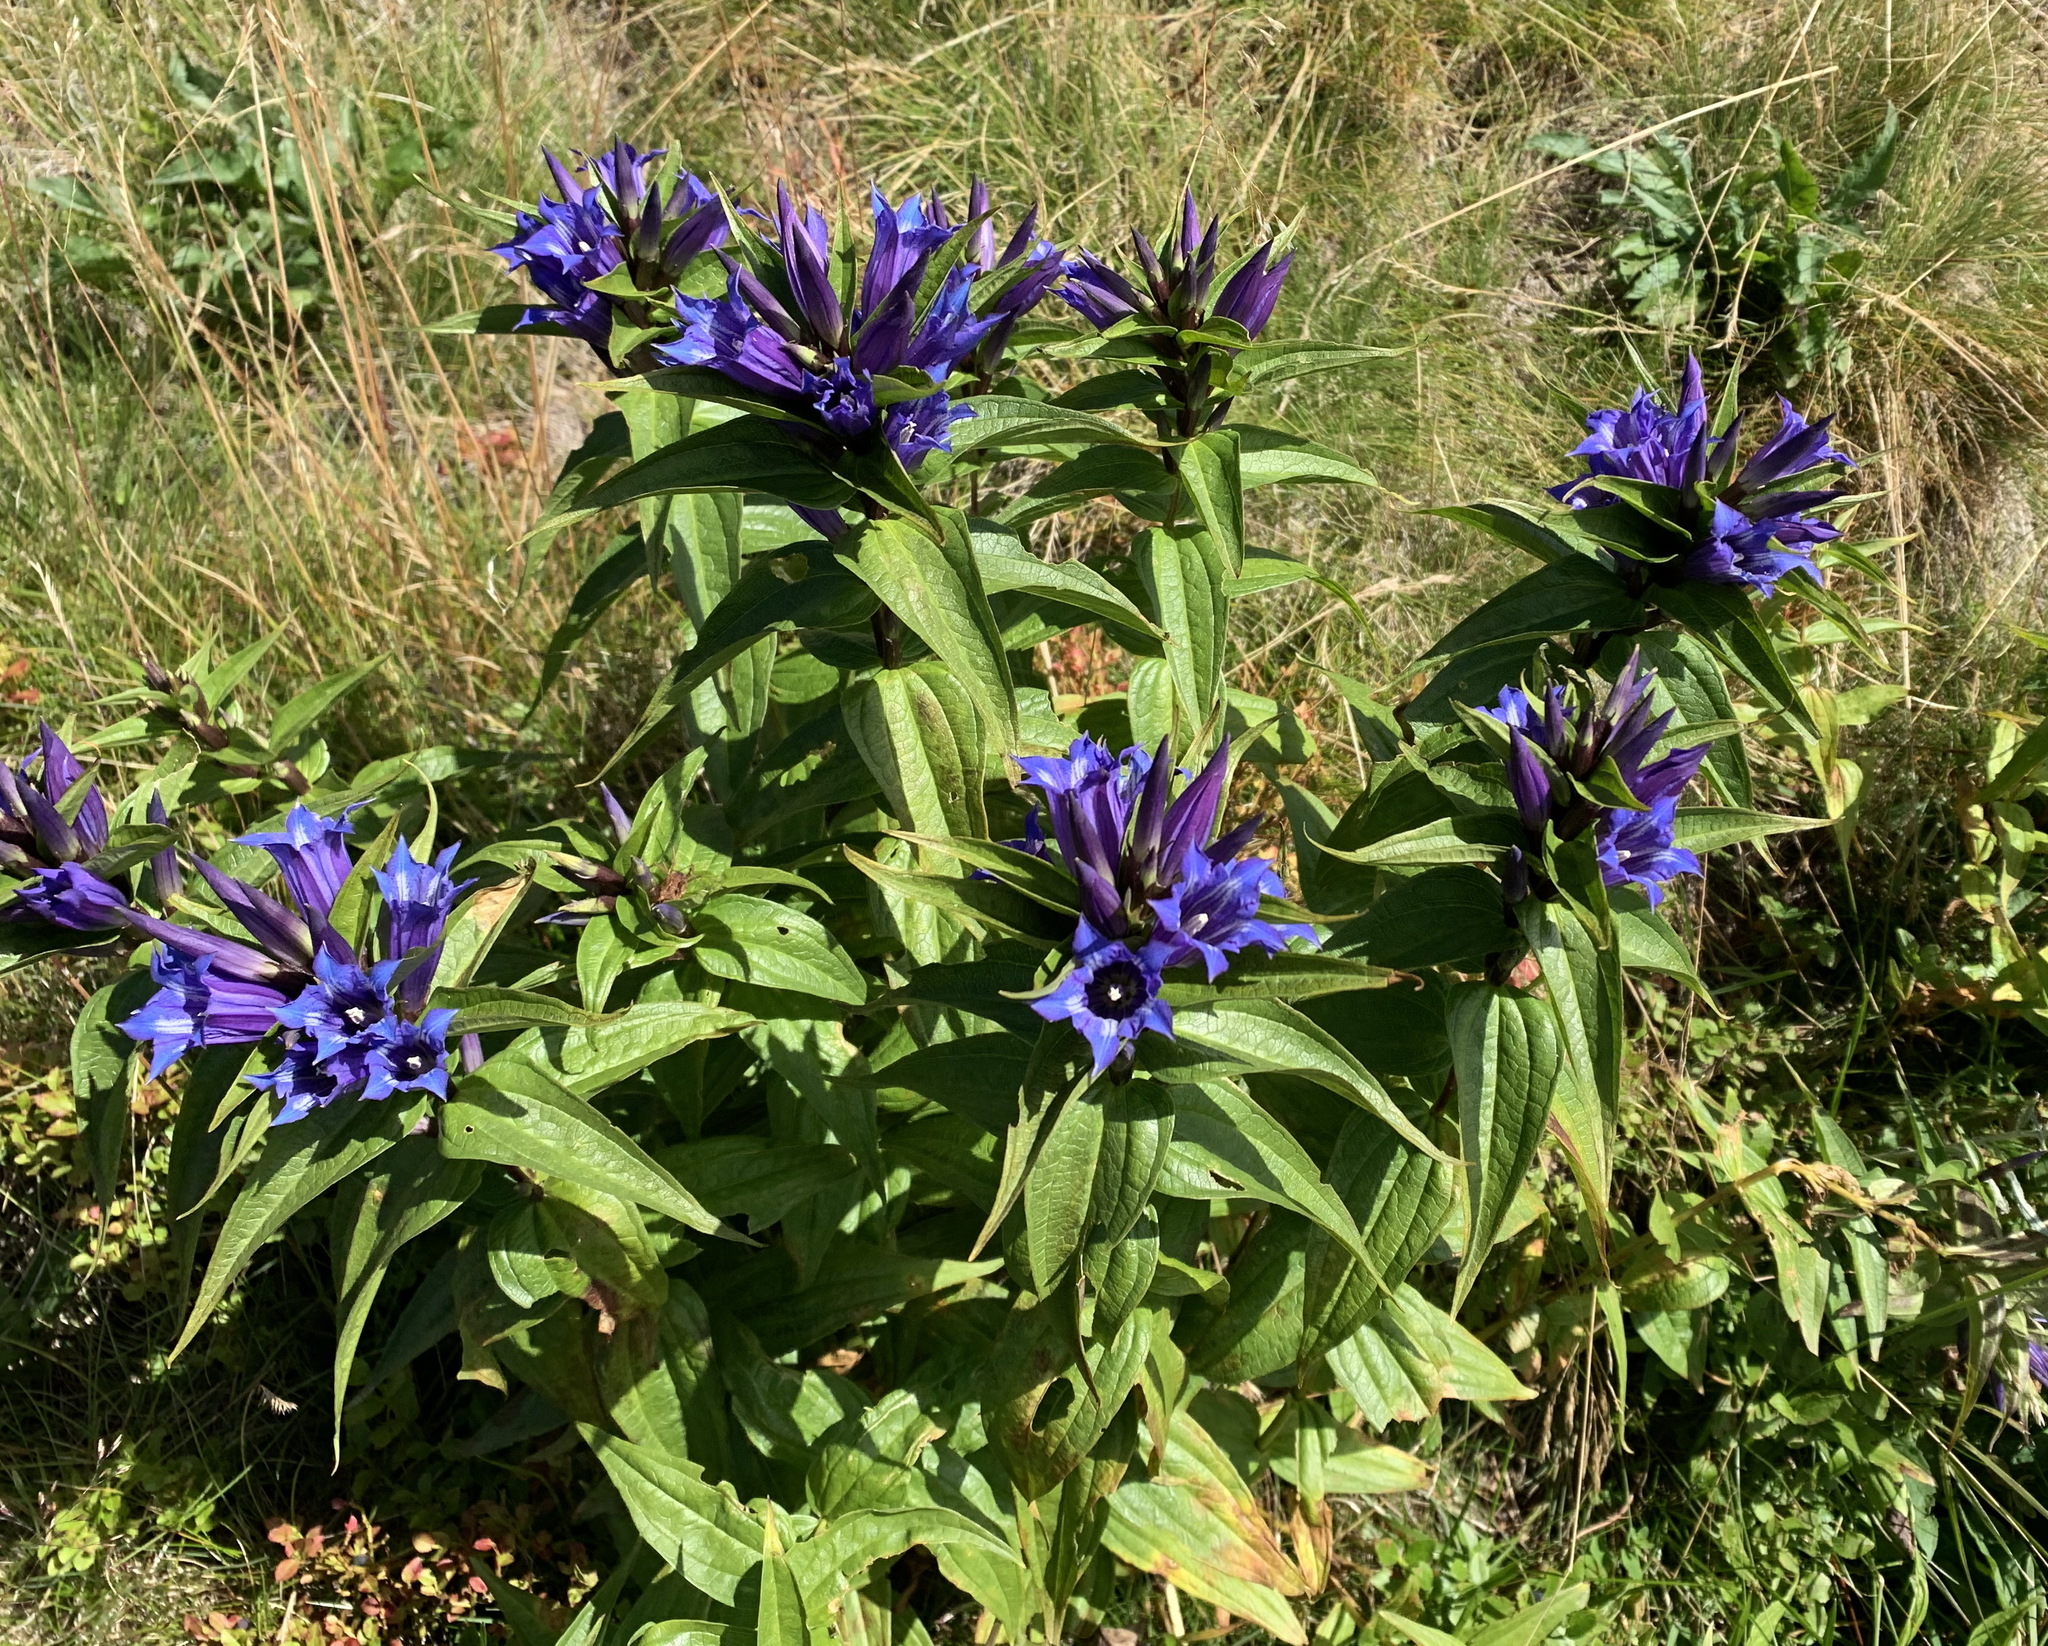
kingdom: Plantae
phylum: Tracheophyta
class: Magnoliopsida
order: Gentianales
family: Gentianaceae
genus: Gentiana
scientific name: Gentiana asclepiadea
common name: Willow gentian
